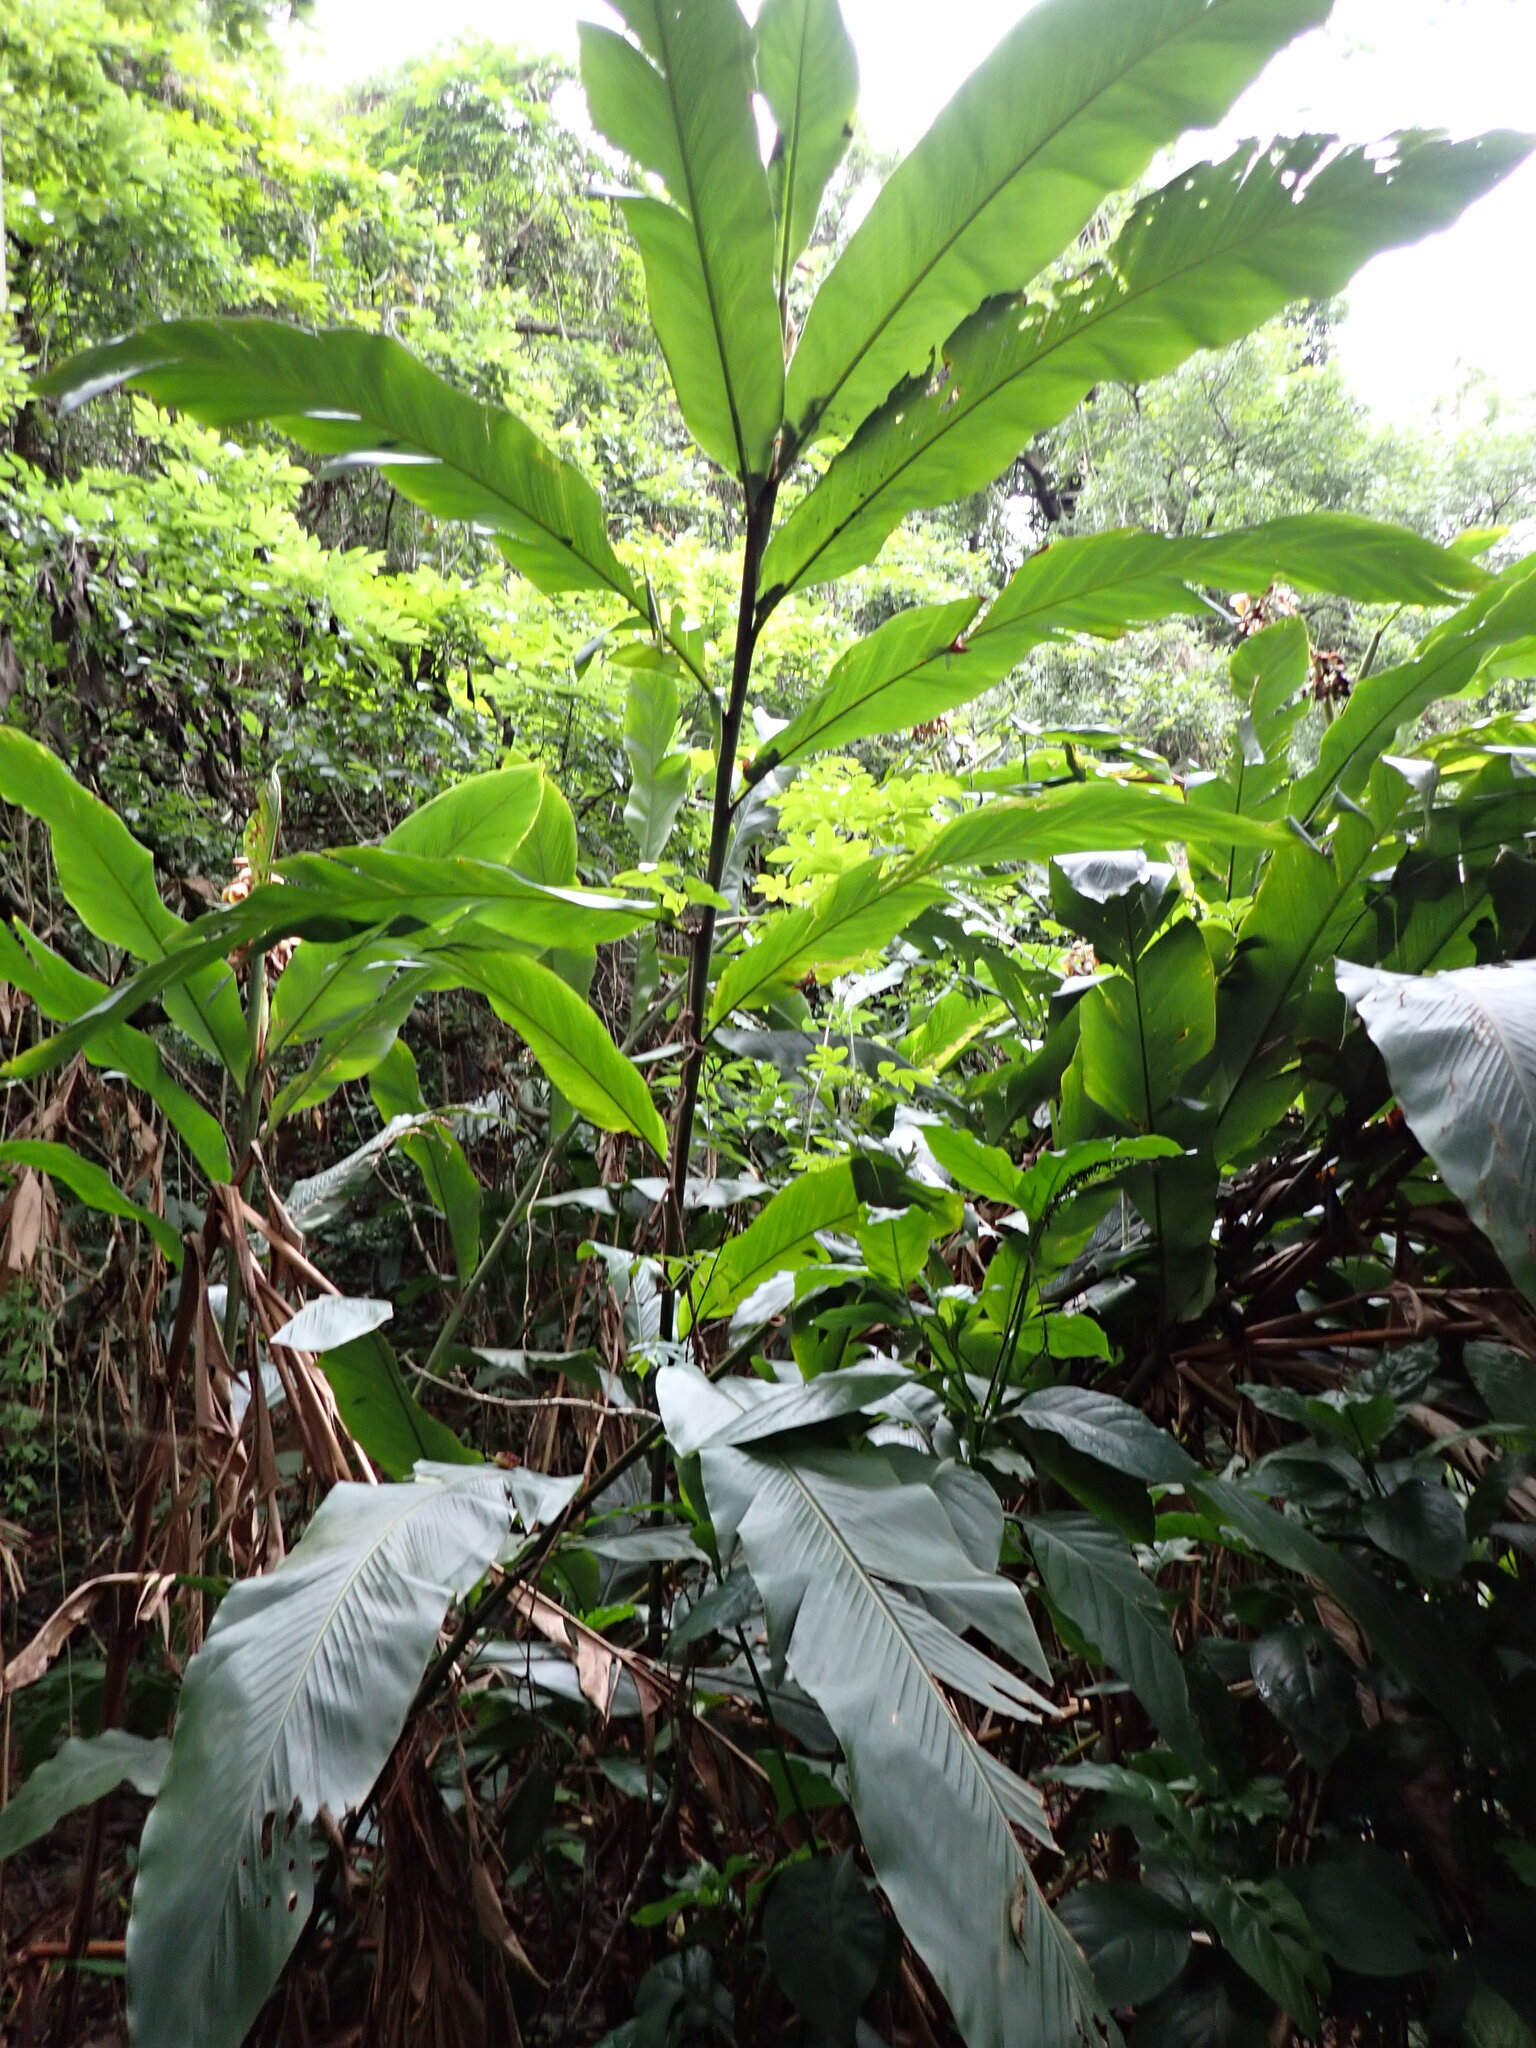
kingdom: Plantae
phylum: Tracheophyta
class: Liliopsida
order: Zingiberales
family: Zingiberaceae
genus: Alpinia
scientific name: Alpinia hainanensis
